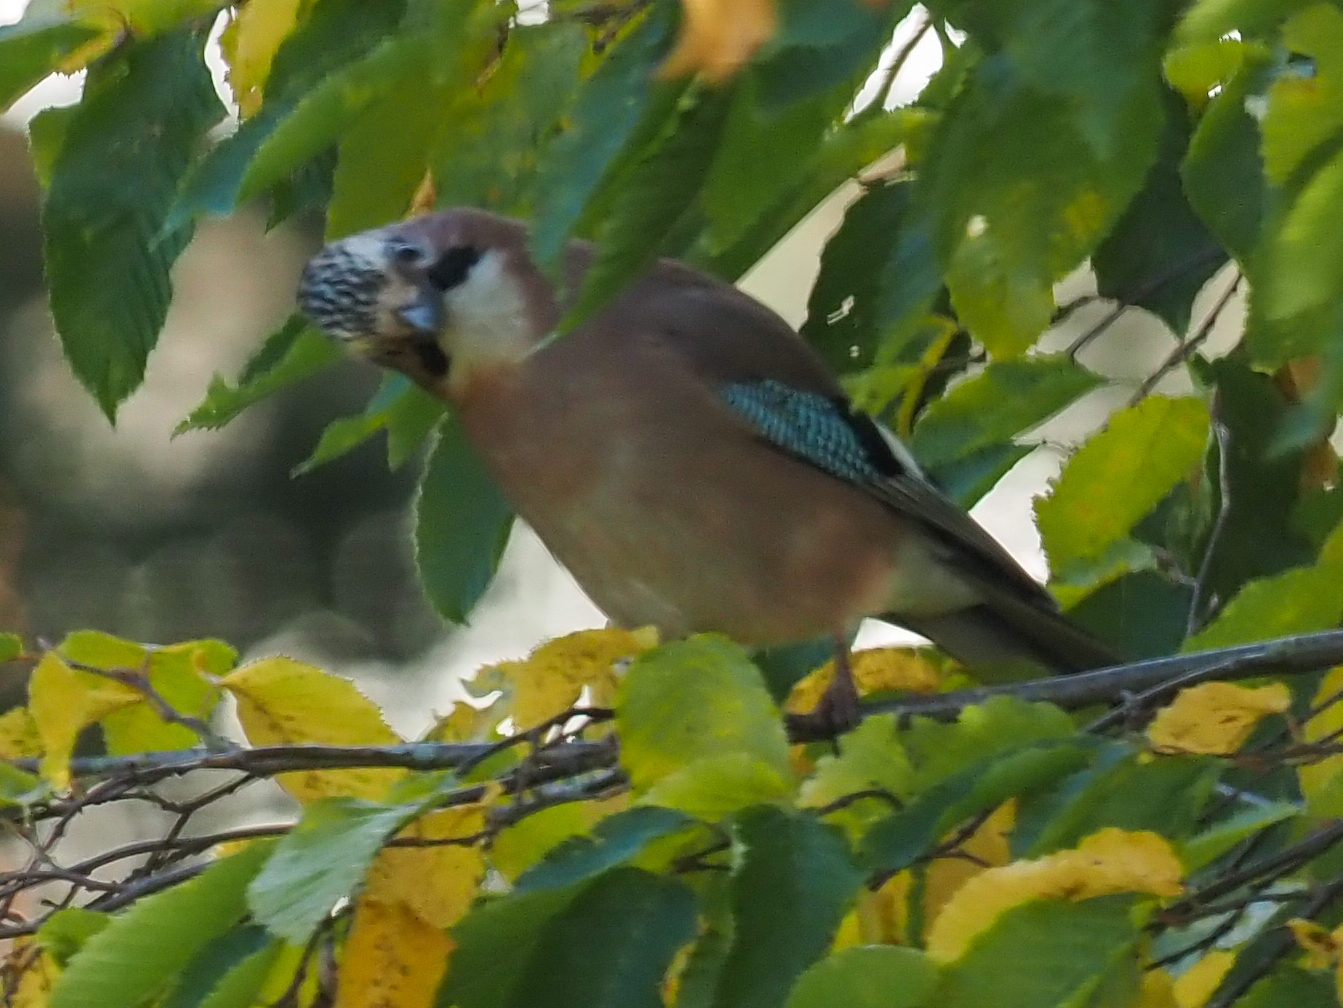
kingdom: Animalia
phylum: Chordata
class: Aves
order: Passeriformes
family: Corvidae
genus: Garrulus
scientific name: Garrulus glandarius
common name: Eurasian jay
